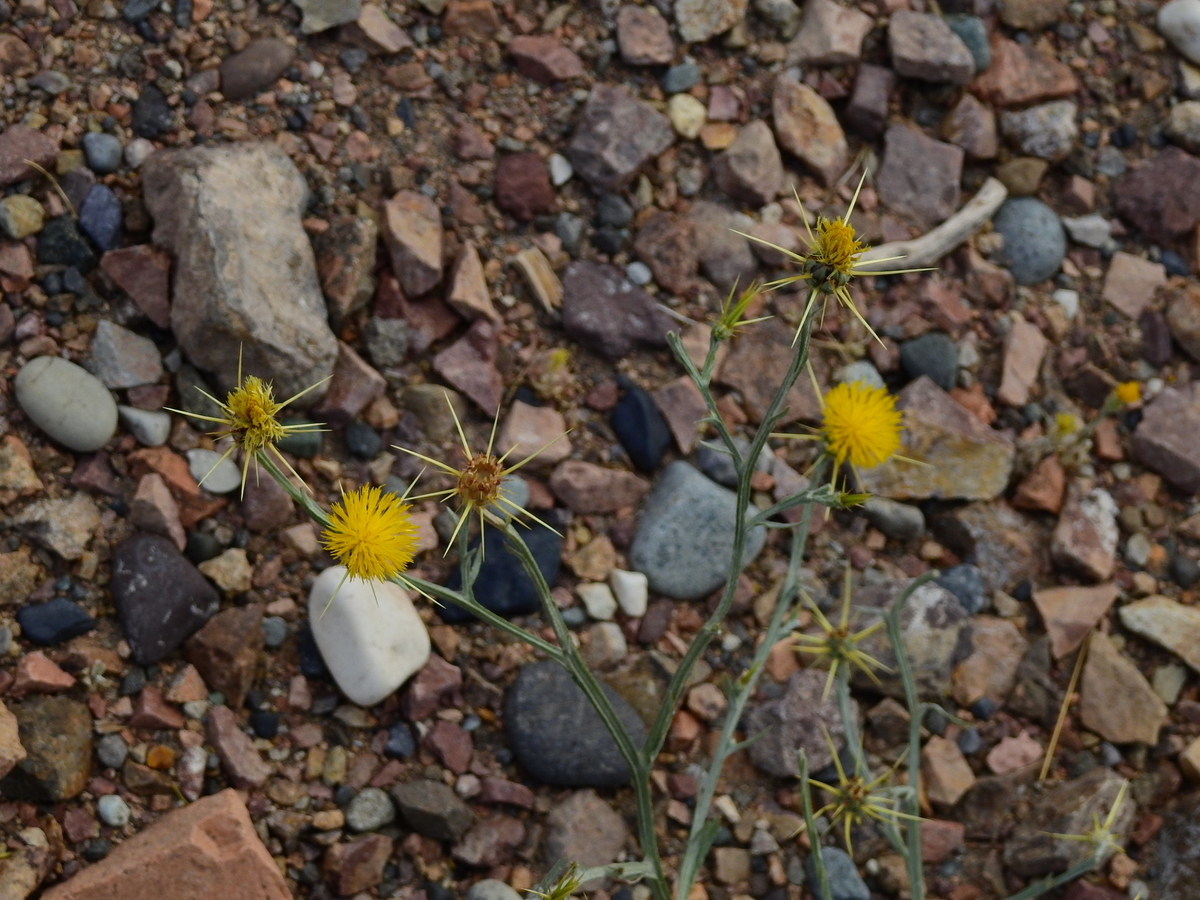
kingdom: Plantae
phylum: Tracheophyta
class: Magnoliopsida
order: Asterales
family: Asteraceae
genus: Centaurea
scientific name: Centaurea solstitialis
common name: Yellow star-thistle
